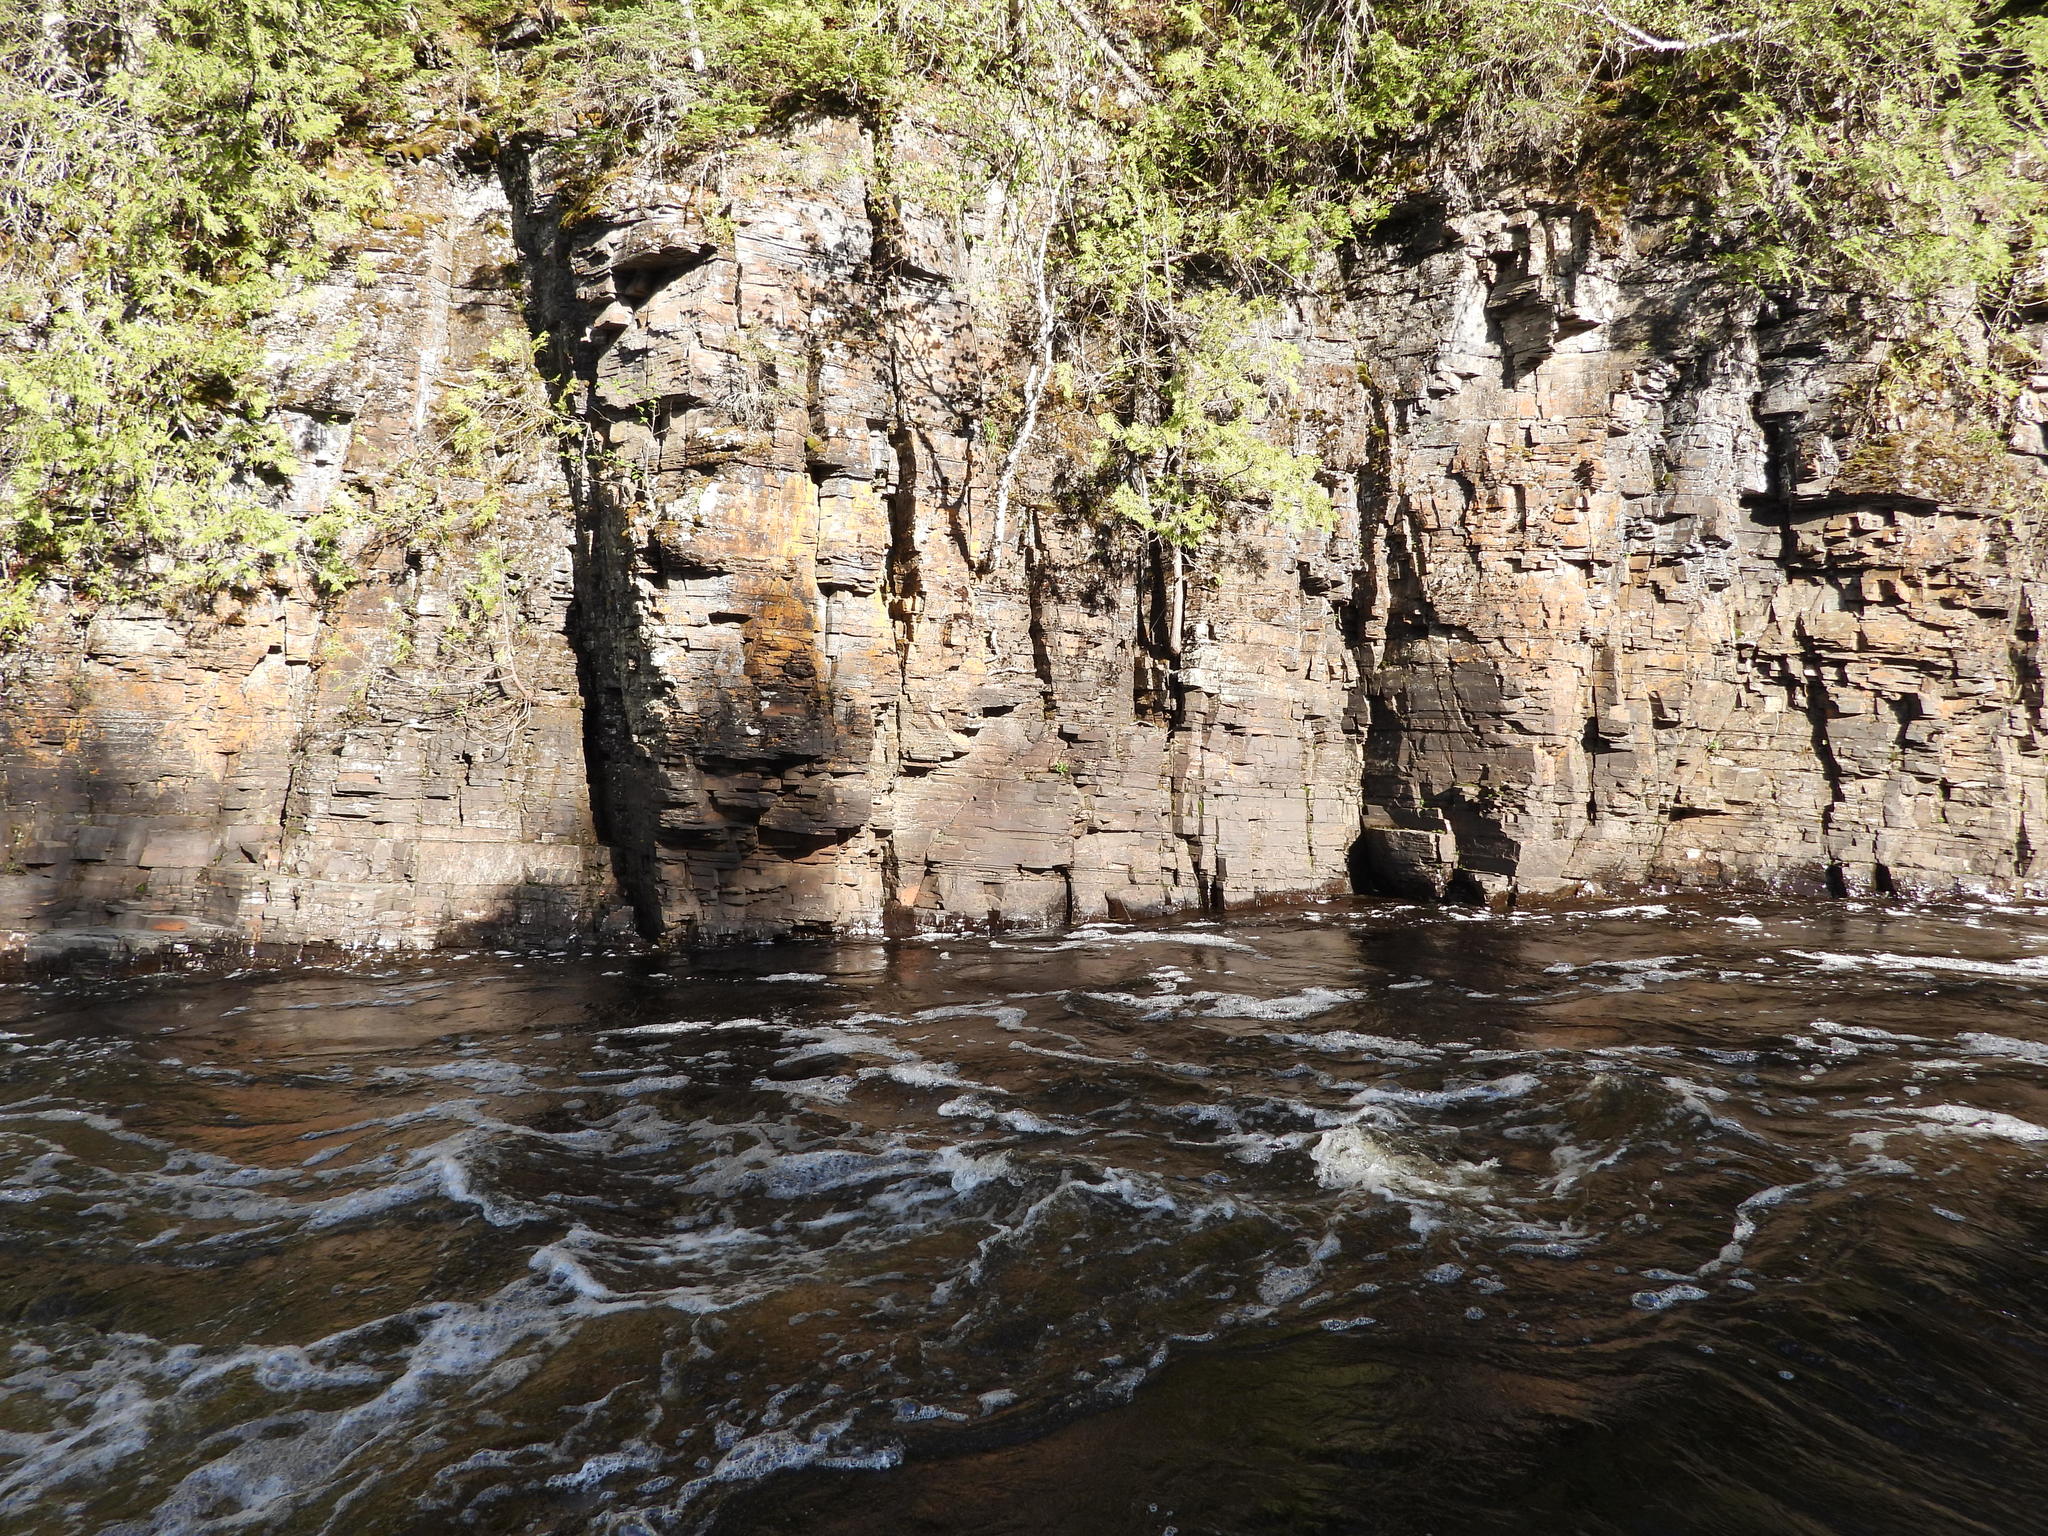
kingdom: Plantae
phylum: Tracheophyta
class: Magnoliopsida
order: Asterales
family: Asteraceae
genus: Arnica
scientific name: Arnica lonchophylla
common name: Northern arnica
